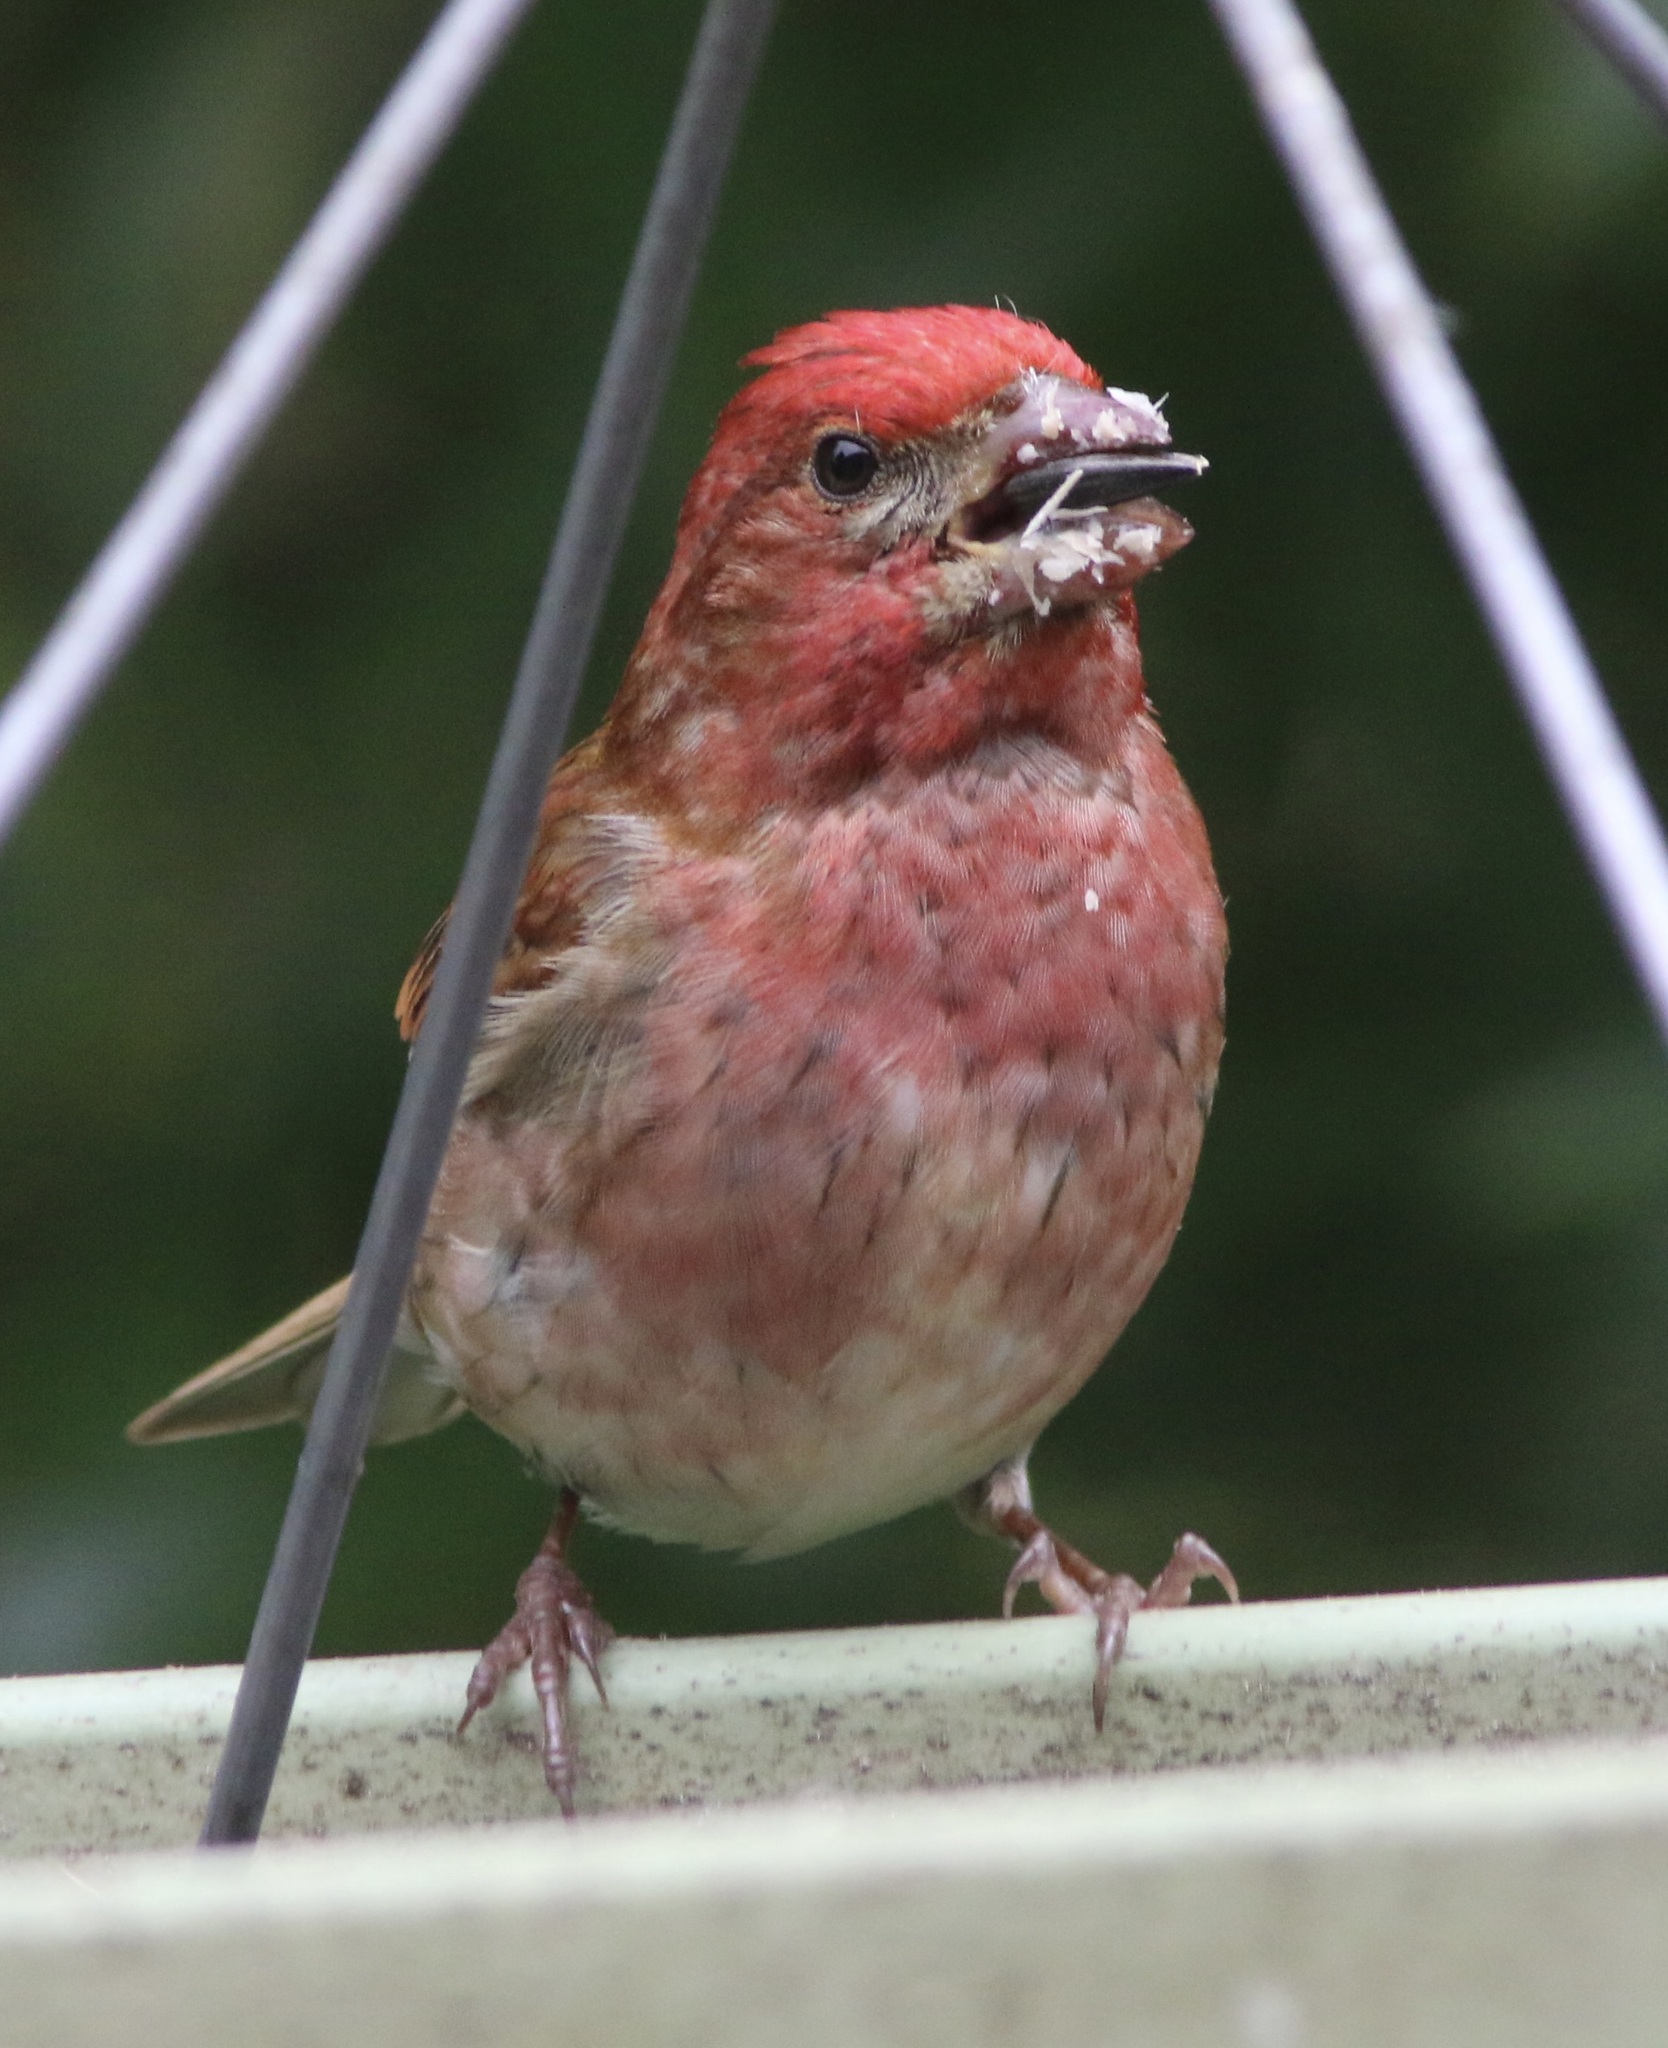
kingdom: Animalia
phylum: Chordata
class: Aves
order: Passeriformes
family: Fringillidae
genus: Haemorhous
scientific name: Haemorhous purpureus
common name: Purple finch
